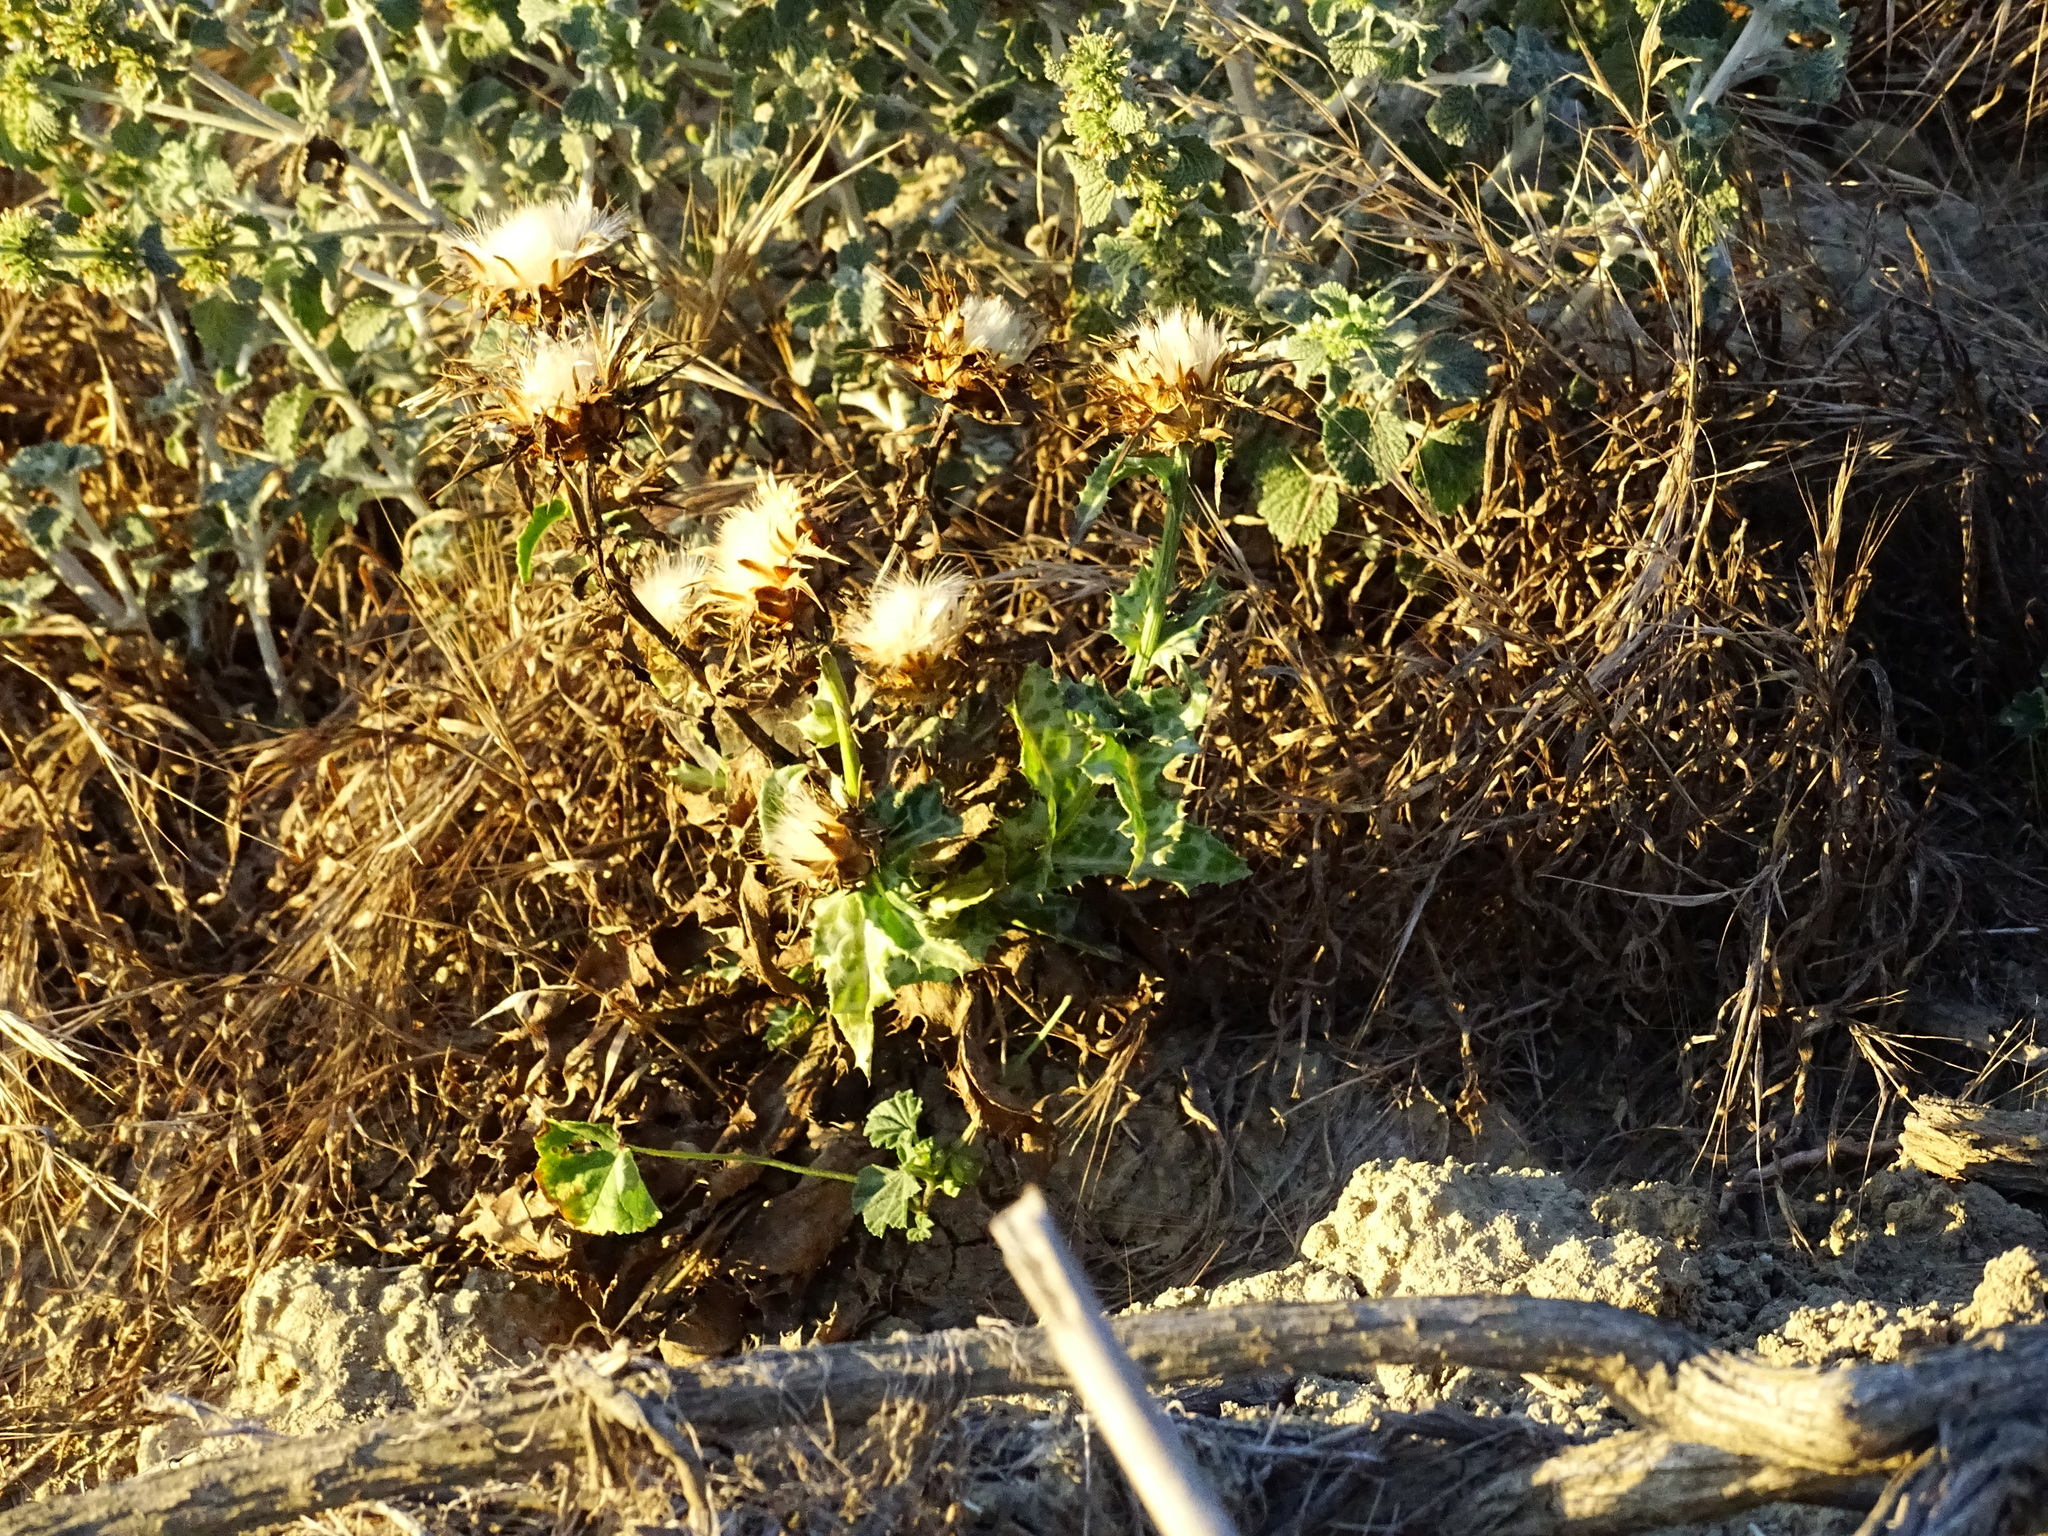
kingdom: Plantae
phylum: Tracheophyta
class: Magnoliopsida
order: Asterales
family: Asteraceae
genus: Silybum
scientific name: Silybum marianum
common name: Milk thistle
